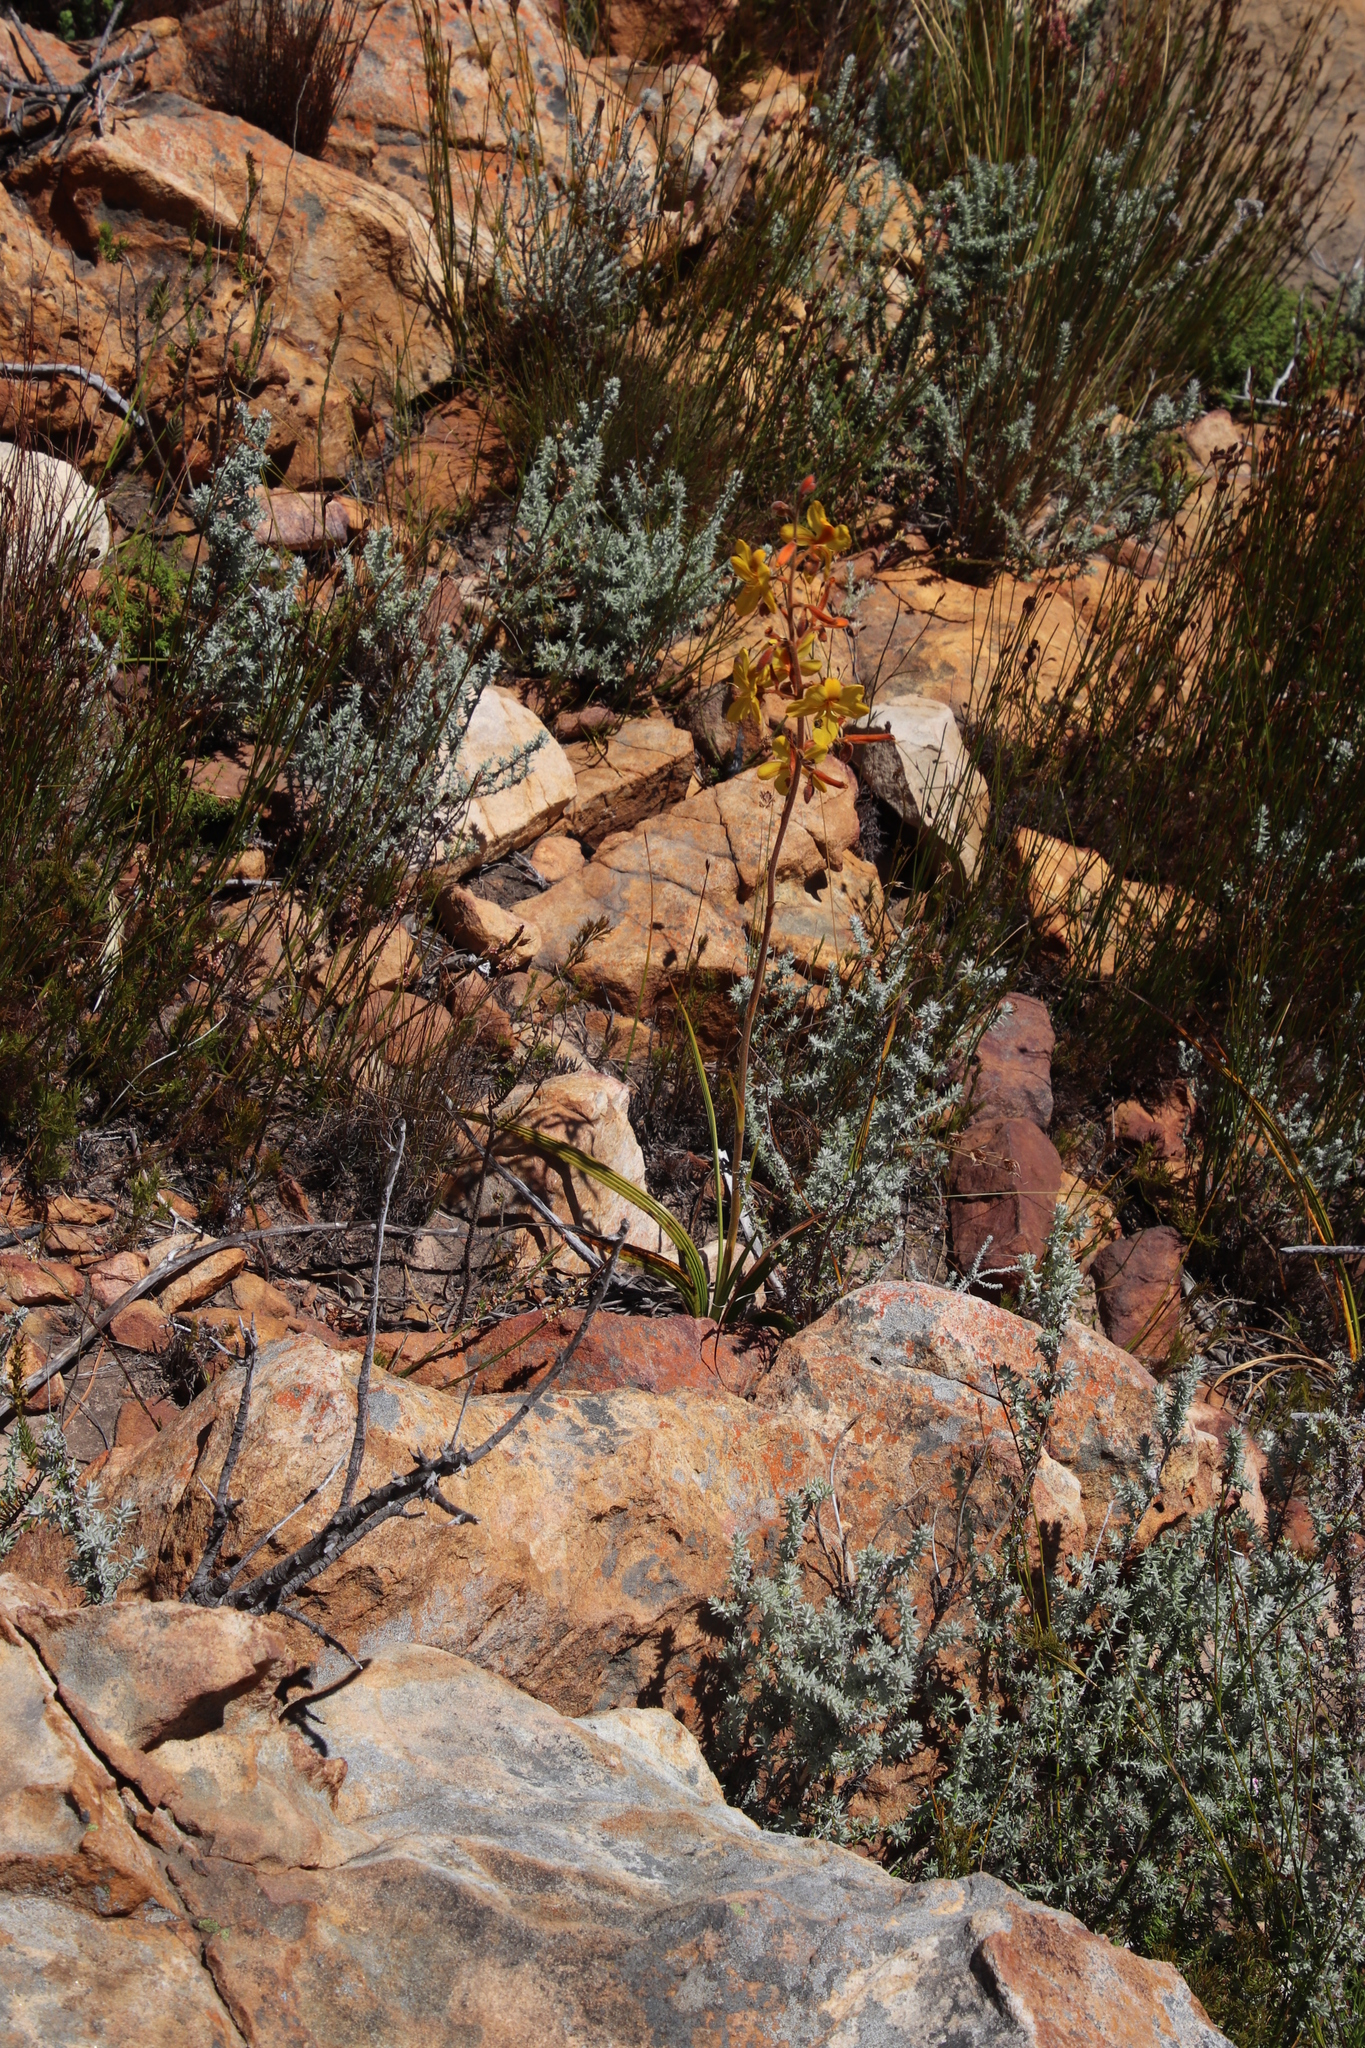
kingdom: Plantae
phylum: Tracheophyta
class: Liliopsida
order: Commelinales
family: Haemodoraceae
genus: Wachendorfia
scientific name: Wachendorfia paniculata
